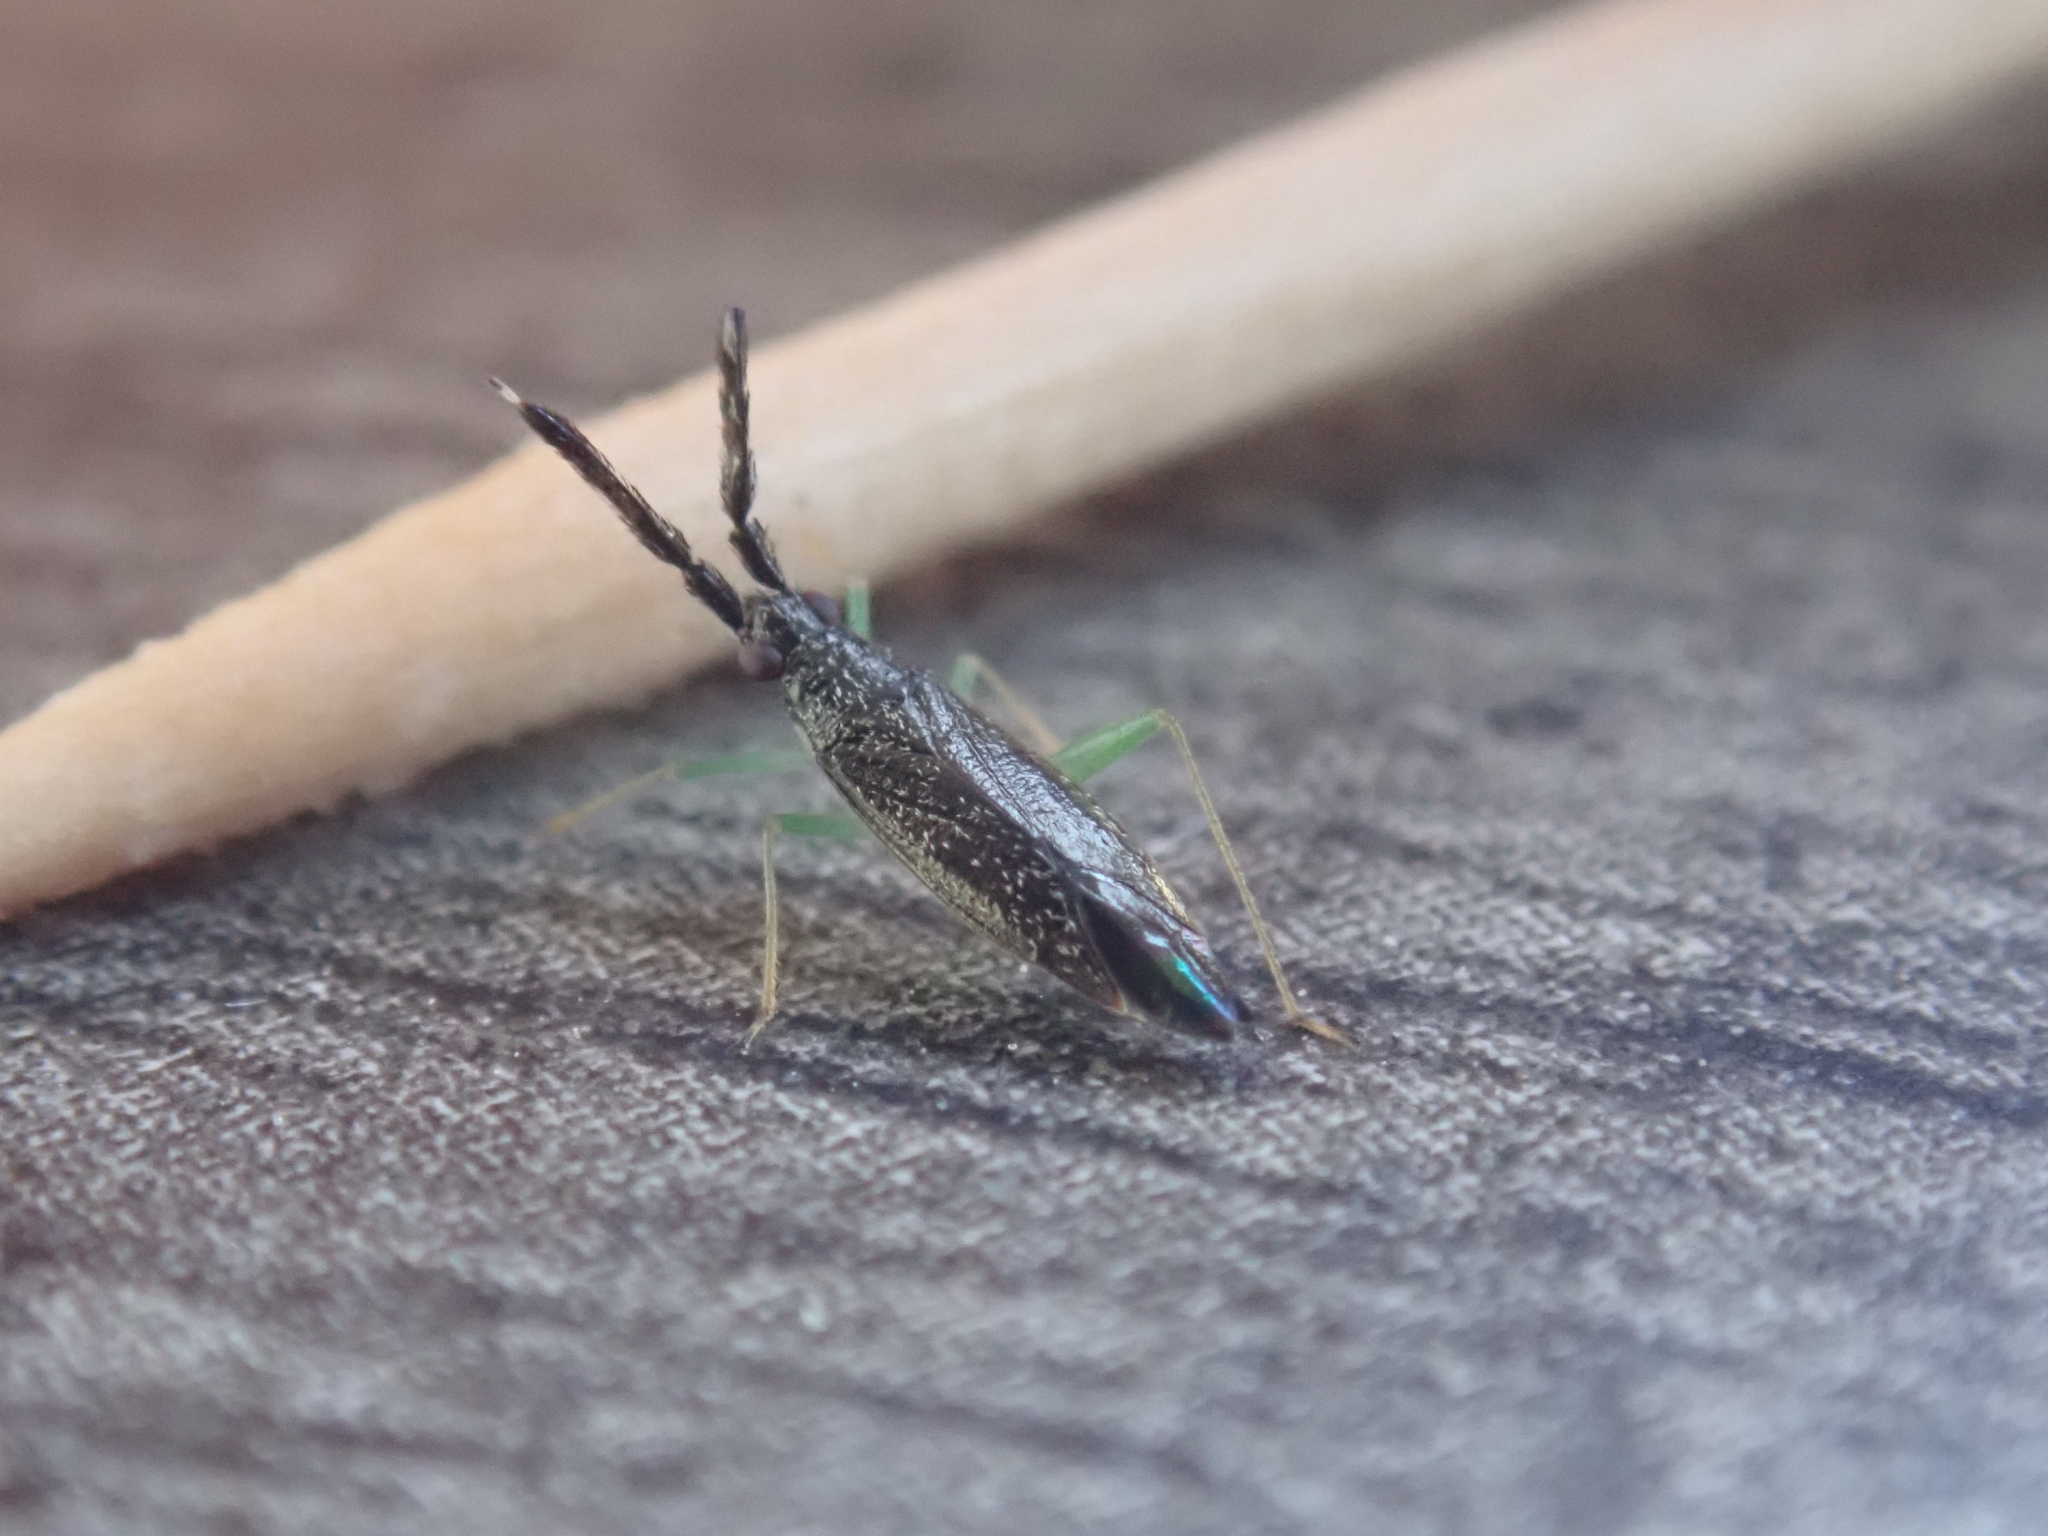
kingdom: Animalia
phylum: Arthropoda
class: Insecta
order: Hemiptera
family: Miridae
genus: Heterotoma
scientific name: Heterotoma planicornis
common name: Plant bug
